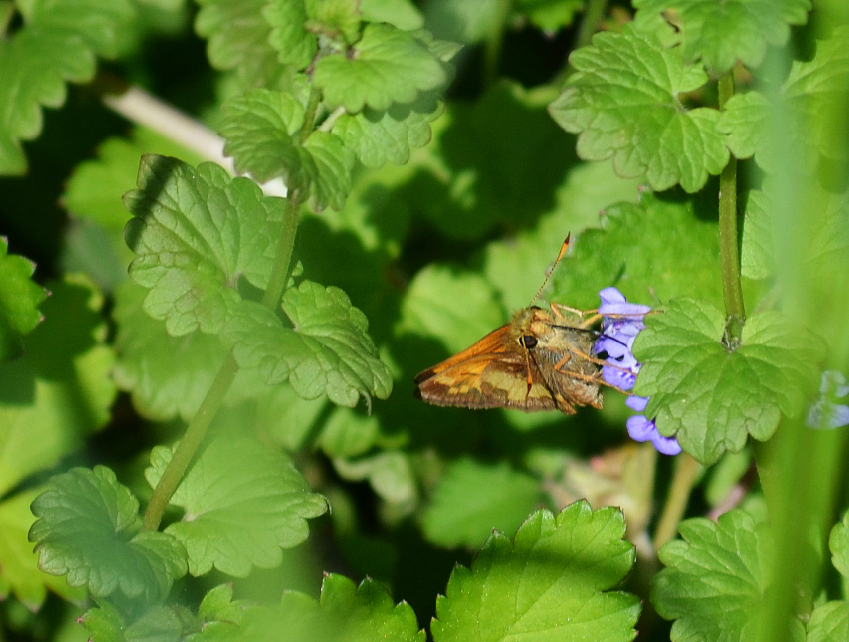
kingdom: Animalia
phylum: Arthropoda
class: Insecta
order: Lepidoptera
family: Hesperiidae
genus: Lon
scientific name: Lon hobomok
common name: Hobomok skipper
